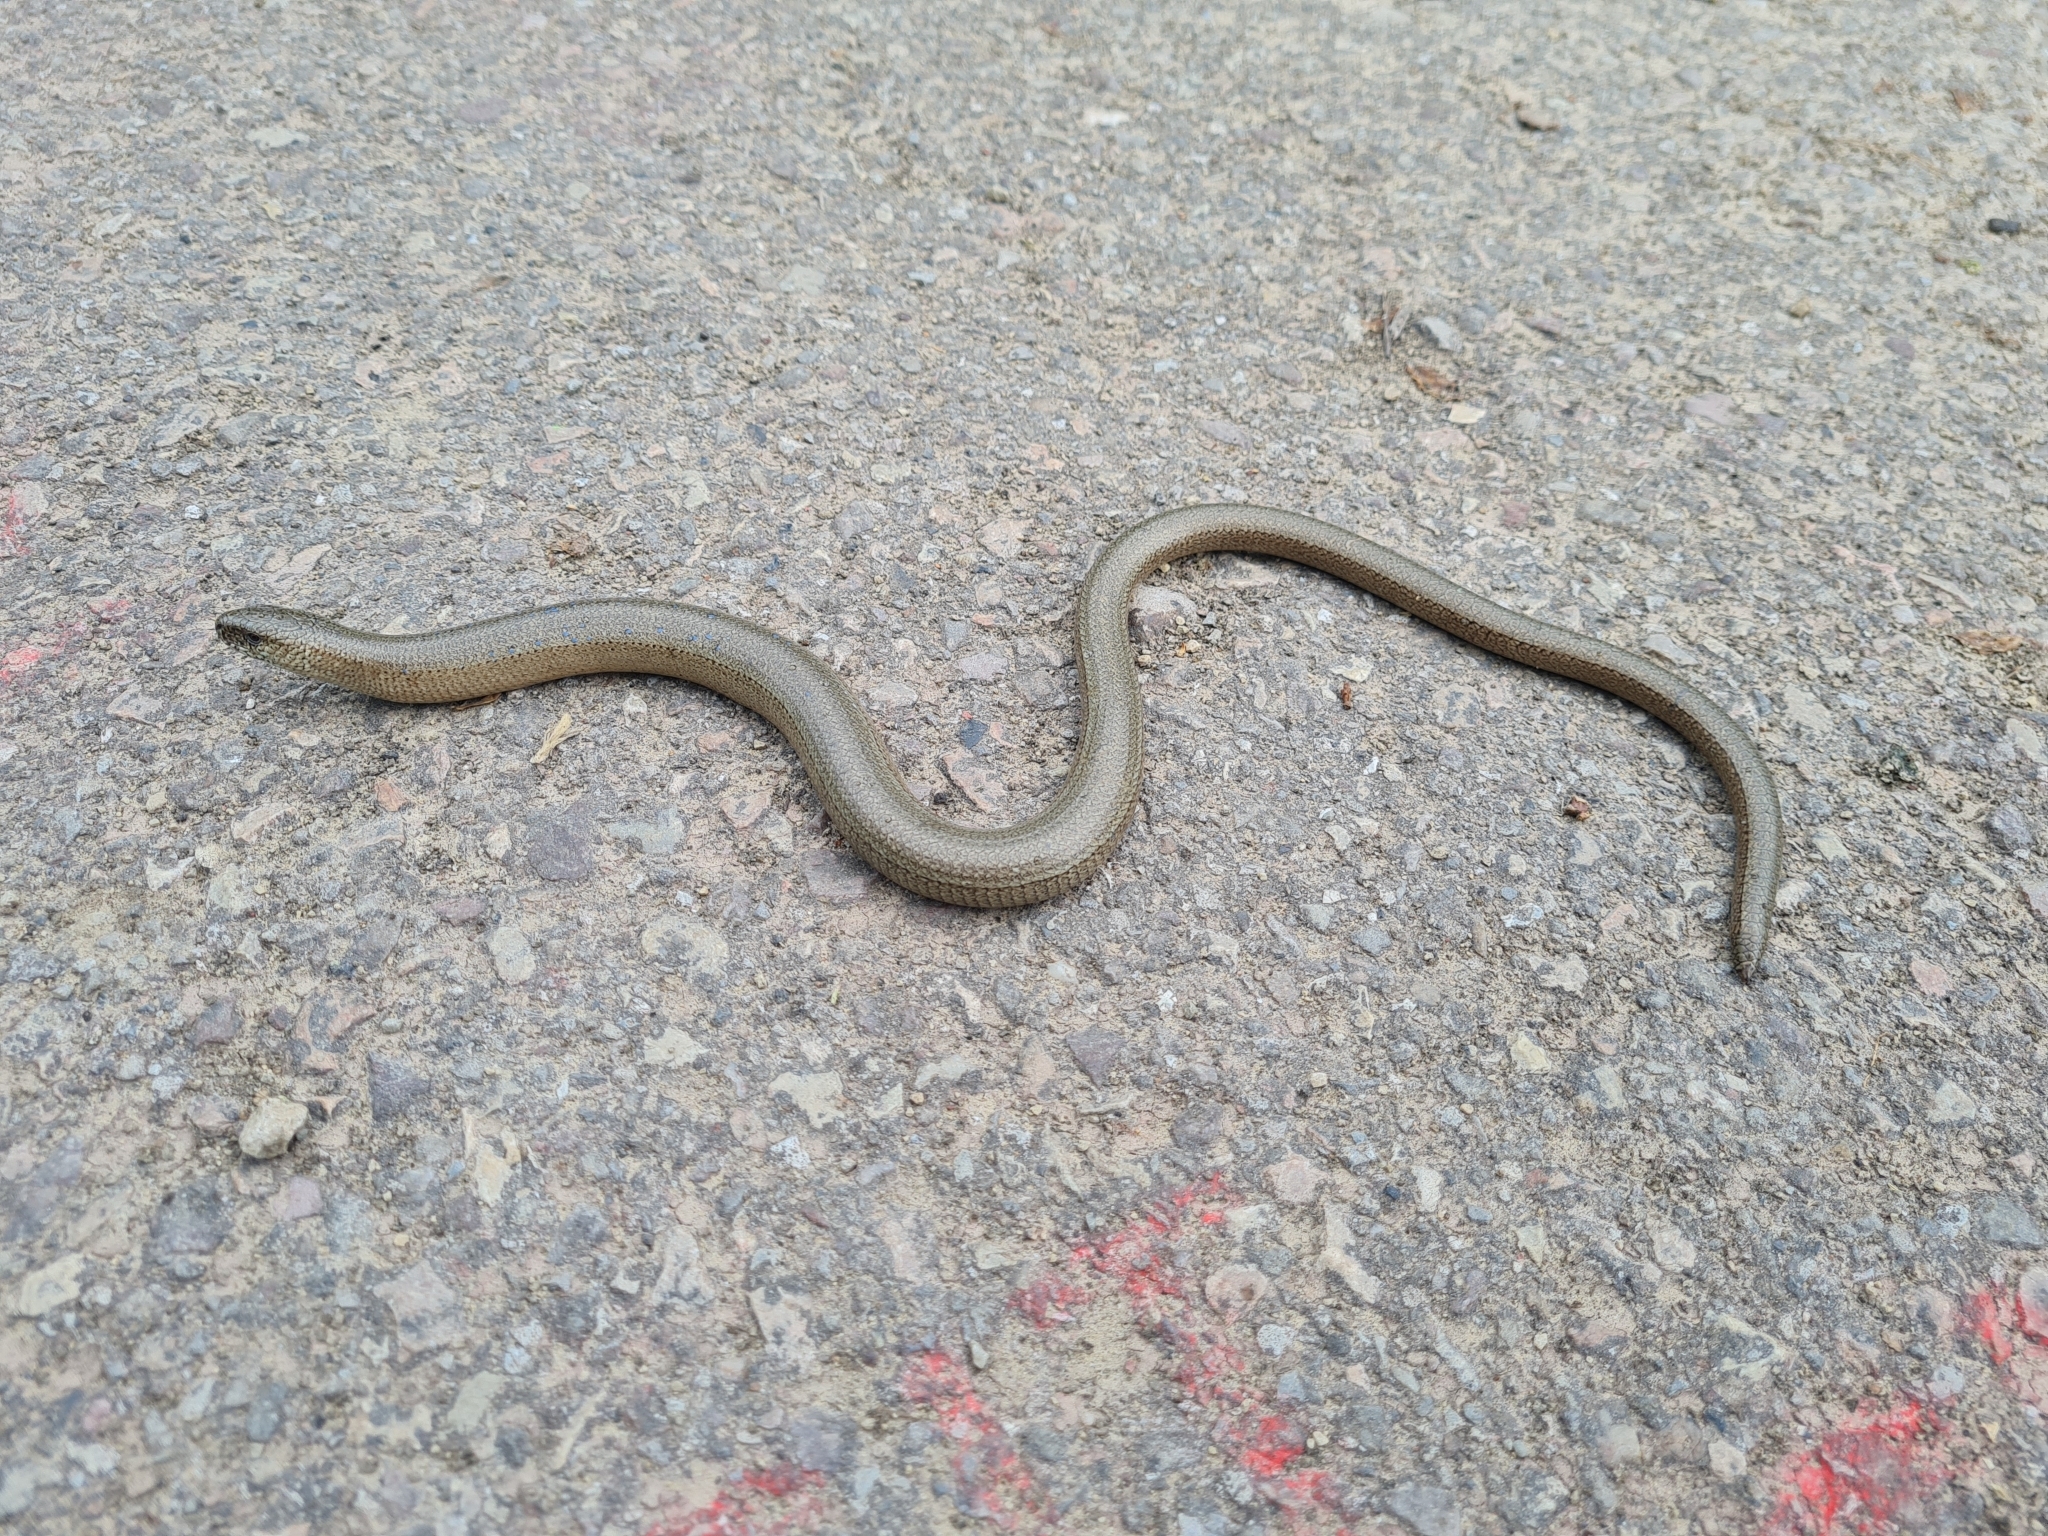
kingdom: Animalia
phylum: Chordata
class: Squamata
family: Anguidae
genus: Anguis
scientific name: Anguis fragilis
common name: Slow worm
